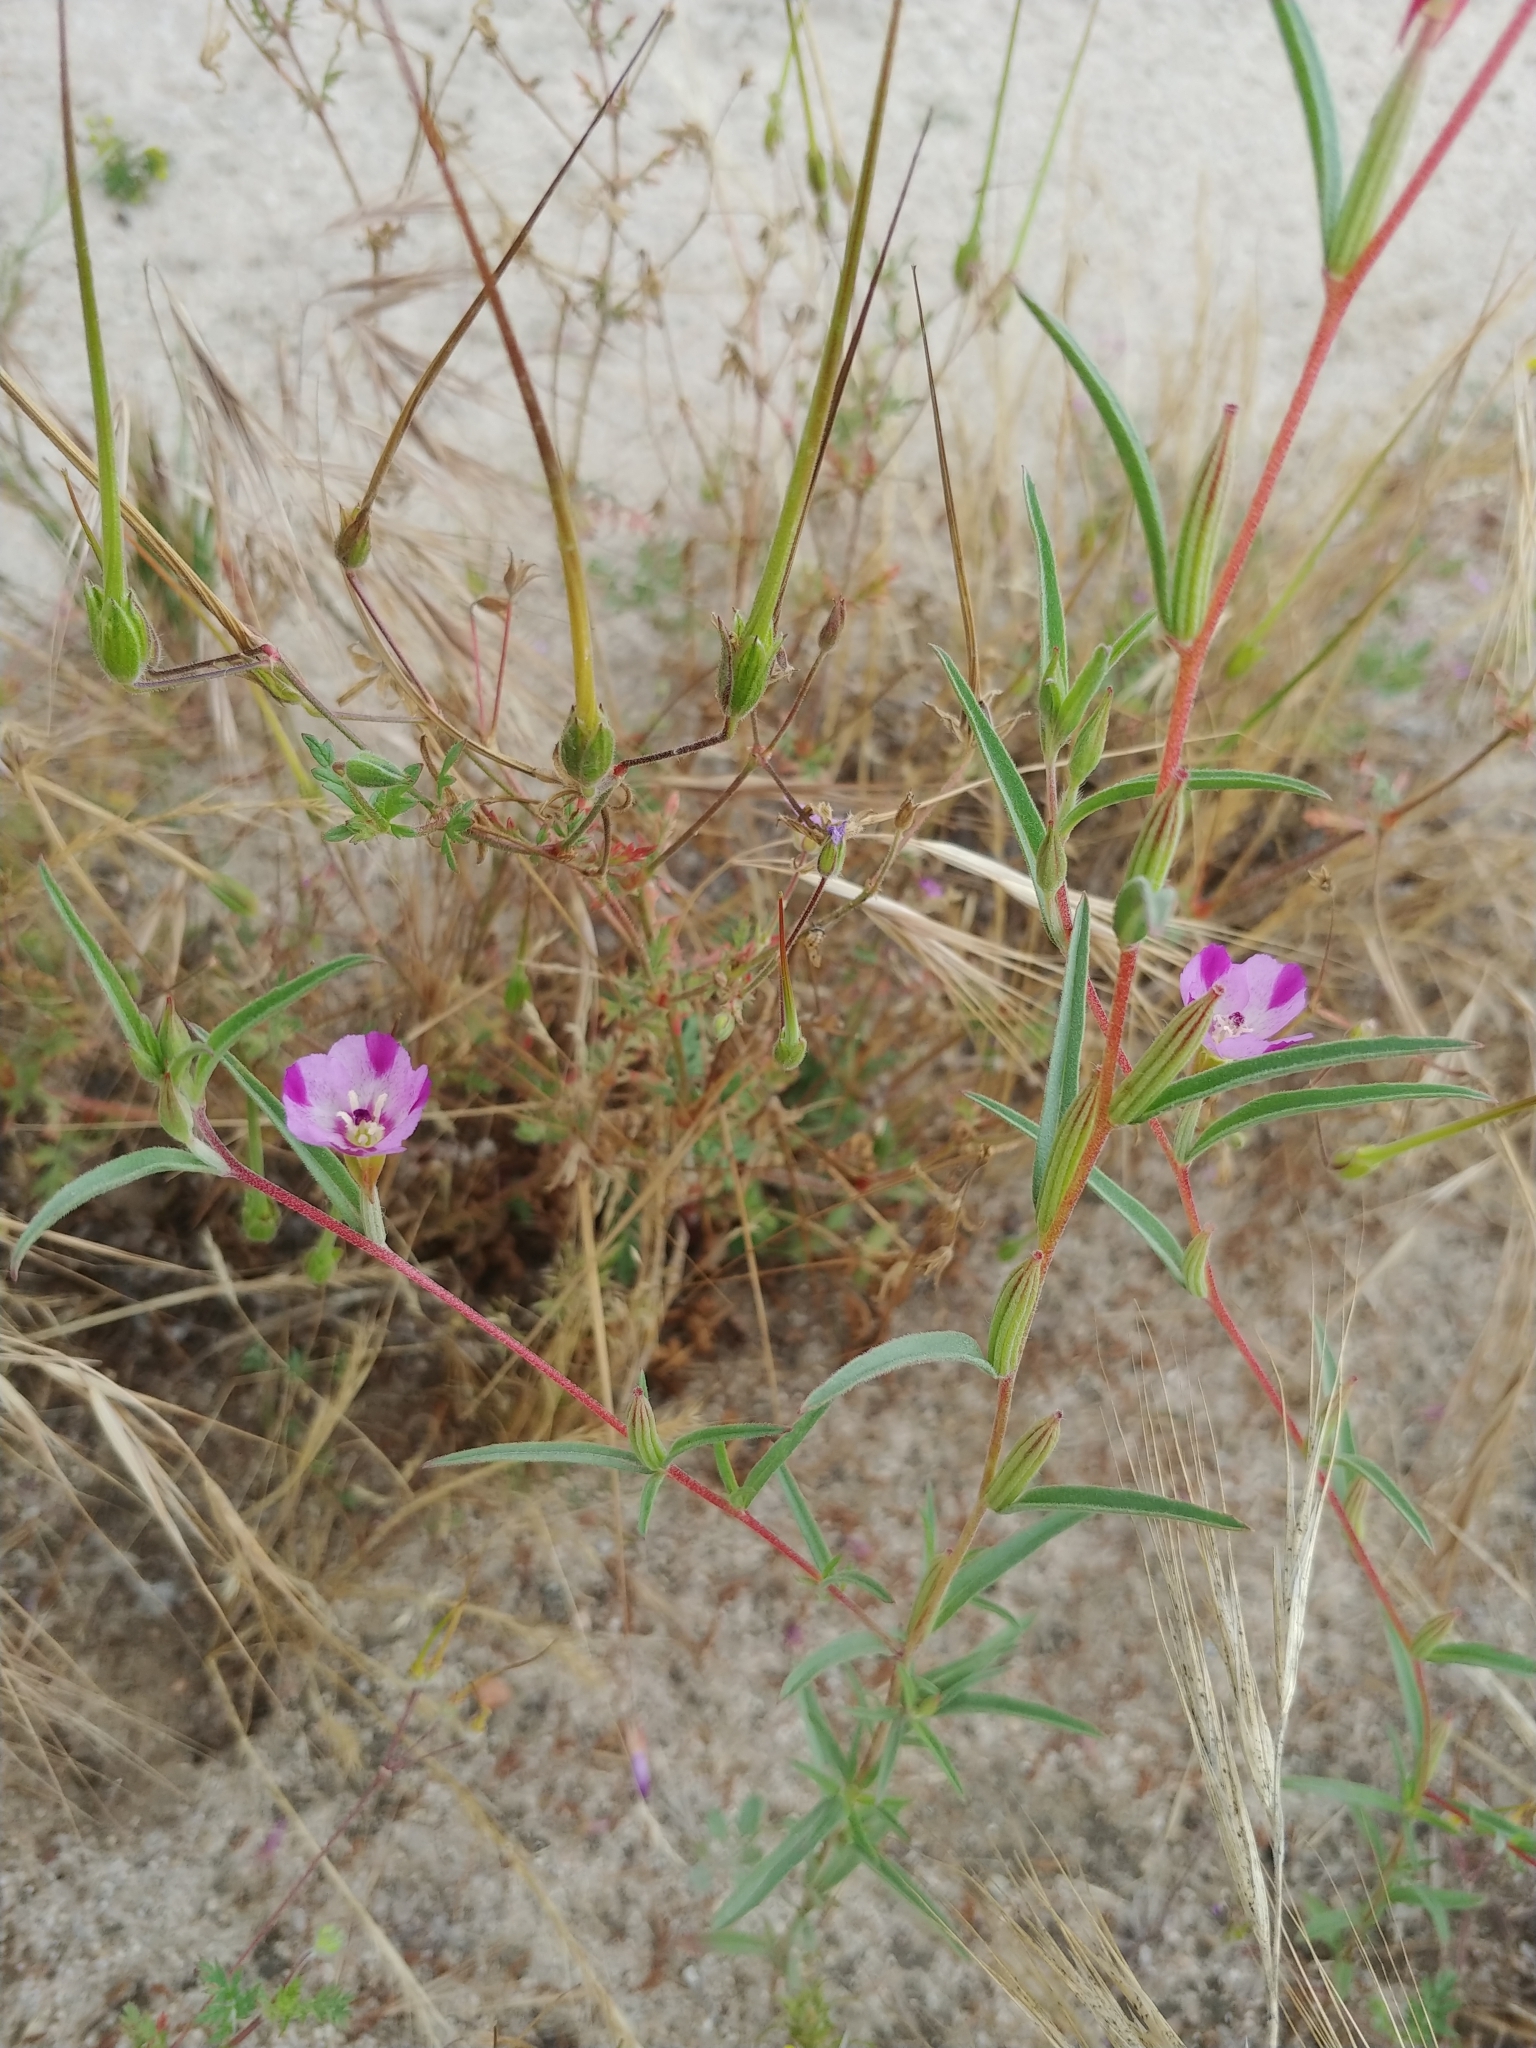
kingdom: Plantae
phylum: Tracheophyta
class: Magnoliopsida
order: Myrtales
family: Onagraceae
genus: Clarkia
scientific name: Clarkia purpurea
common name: Purple clarkia
